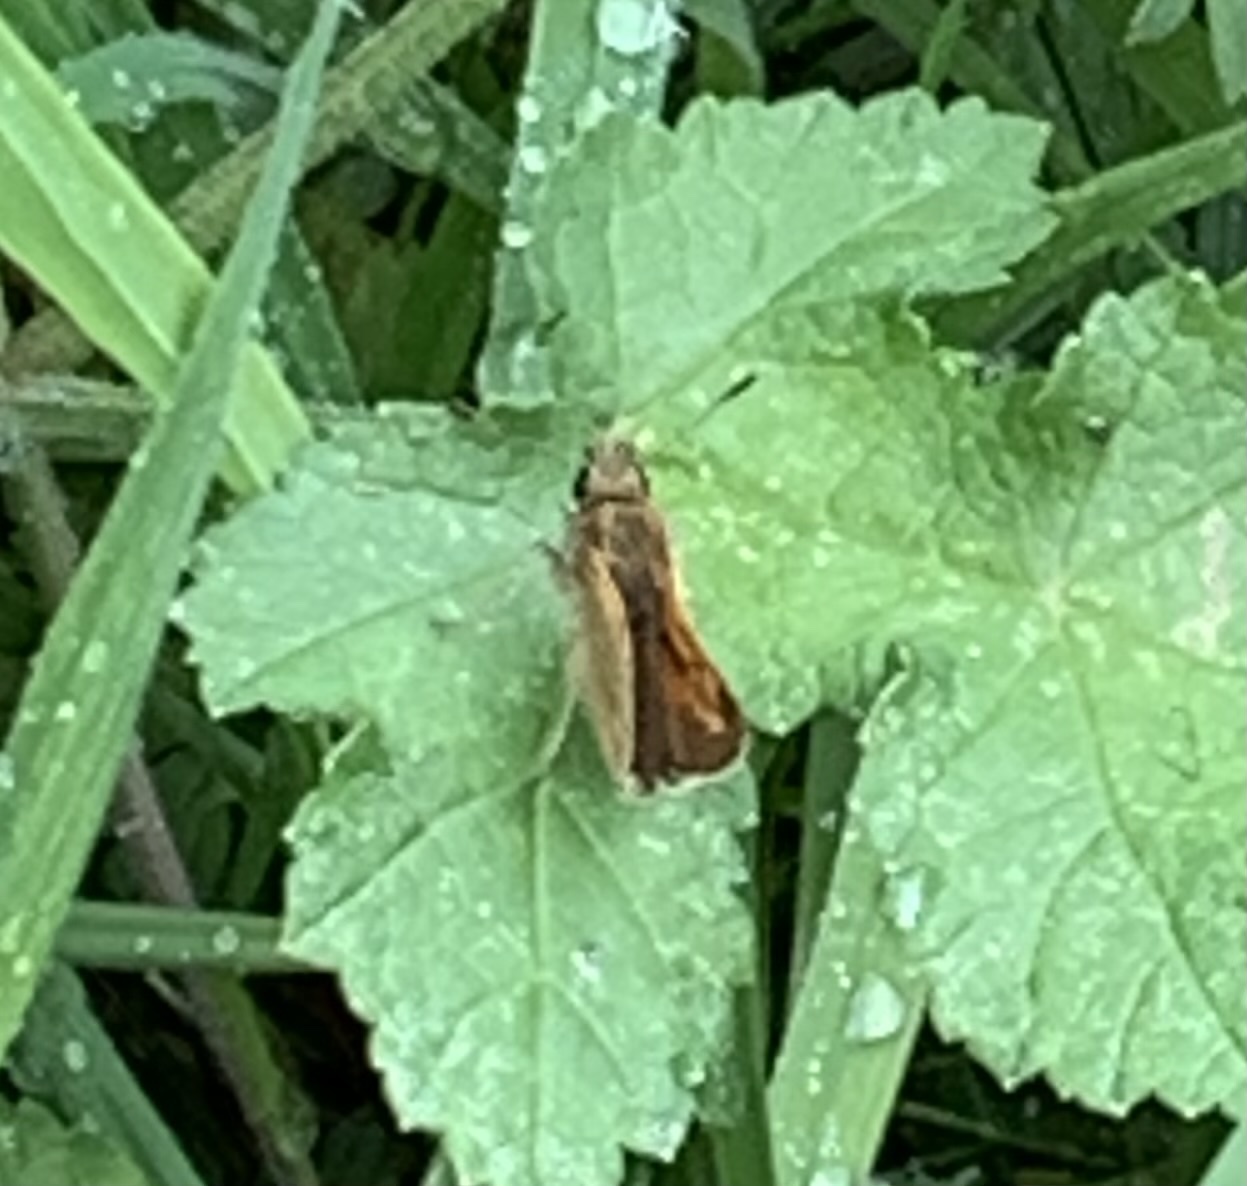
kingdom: Animalia
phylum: Arthropoda
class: Insecta
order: Lepidoptera
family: Hesperiidae
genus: Ochlodes
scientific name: Ochlodes venata
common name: Large skipper
